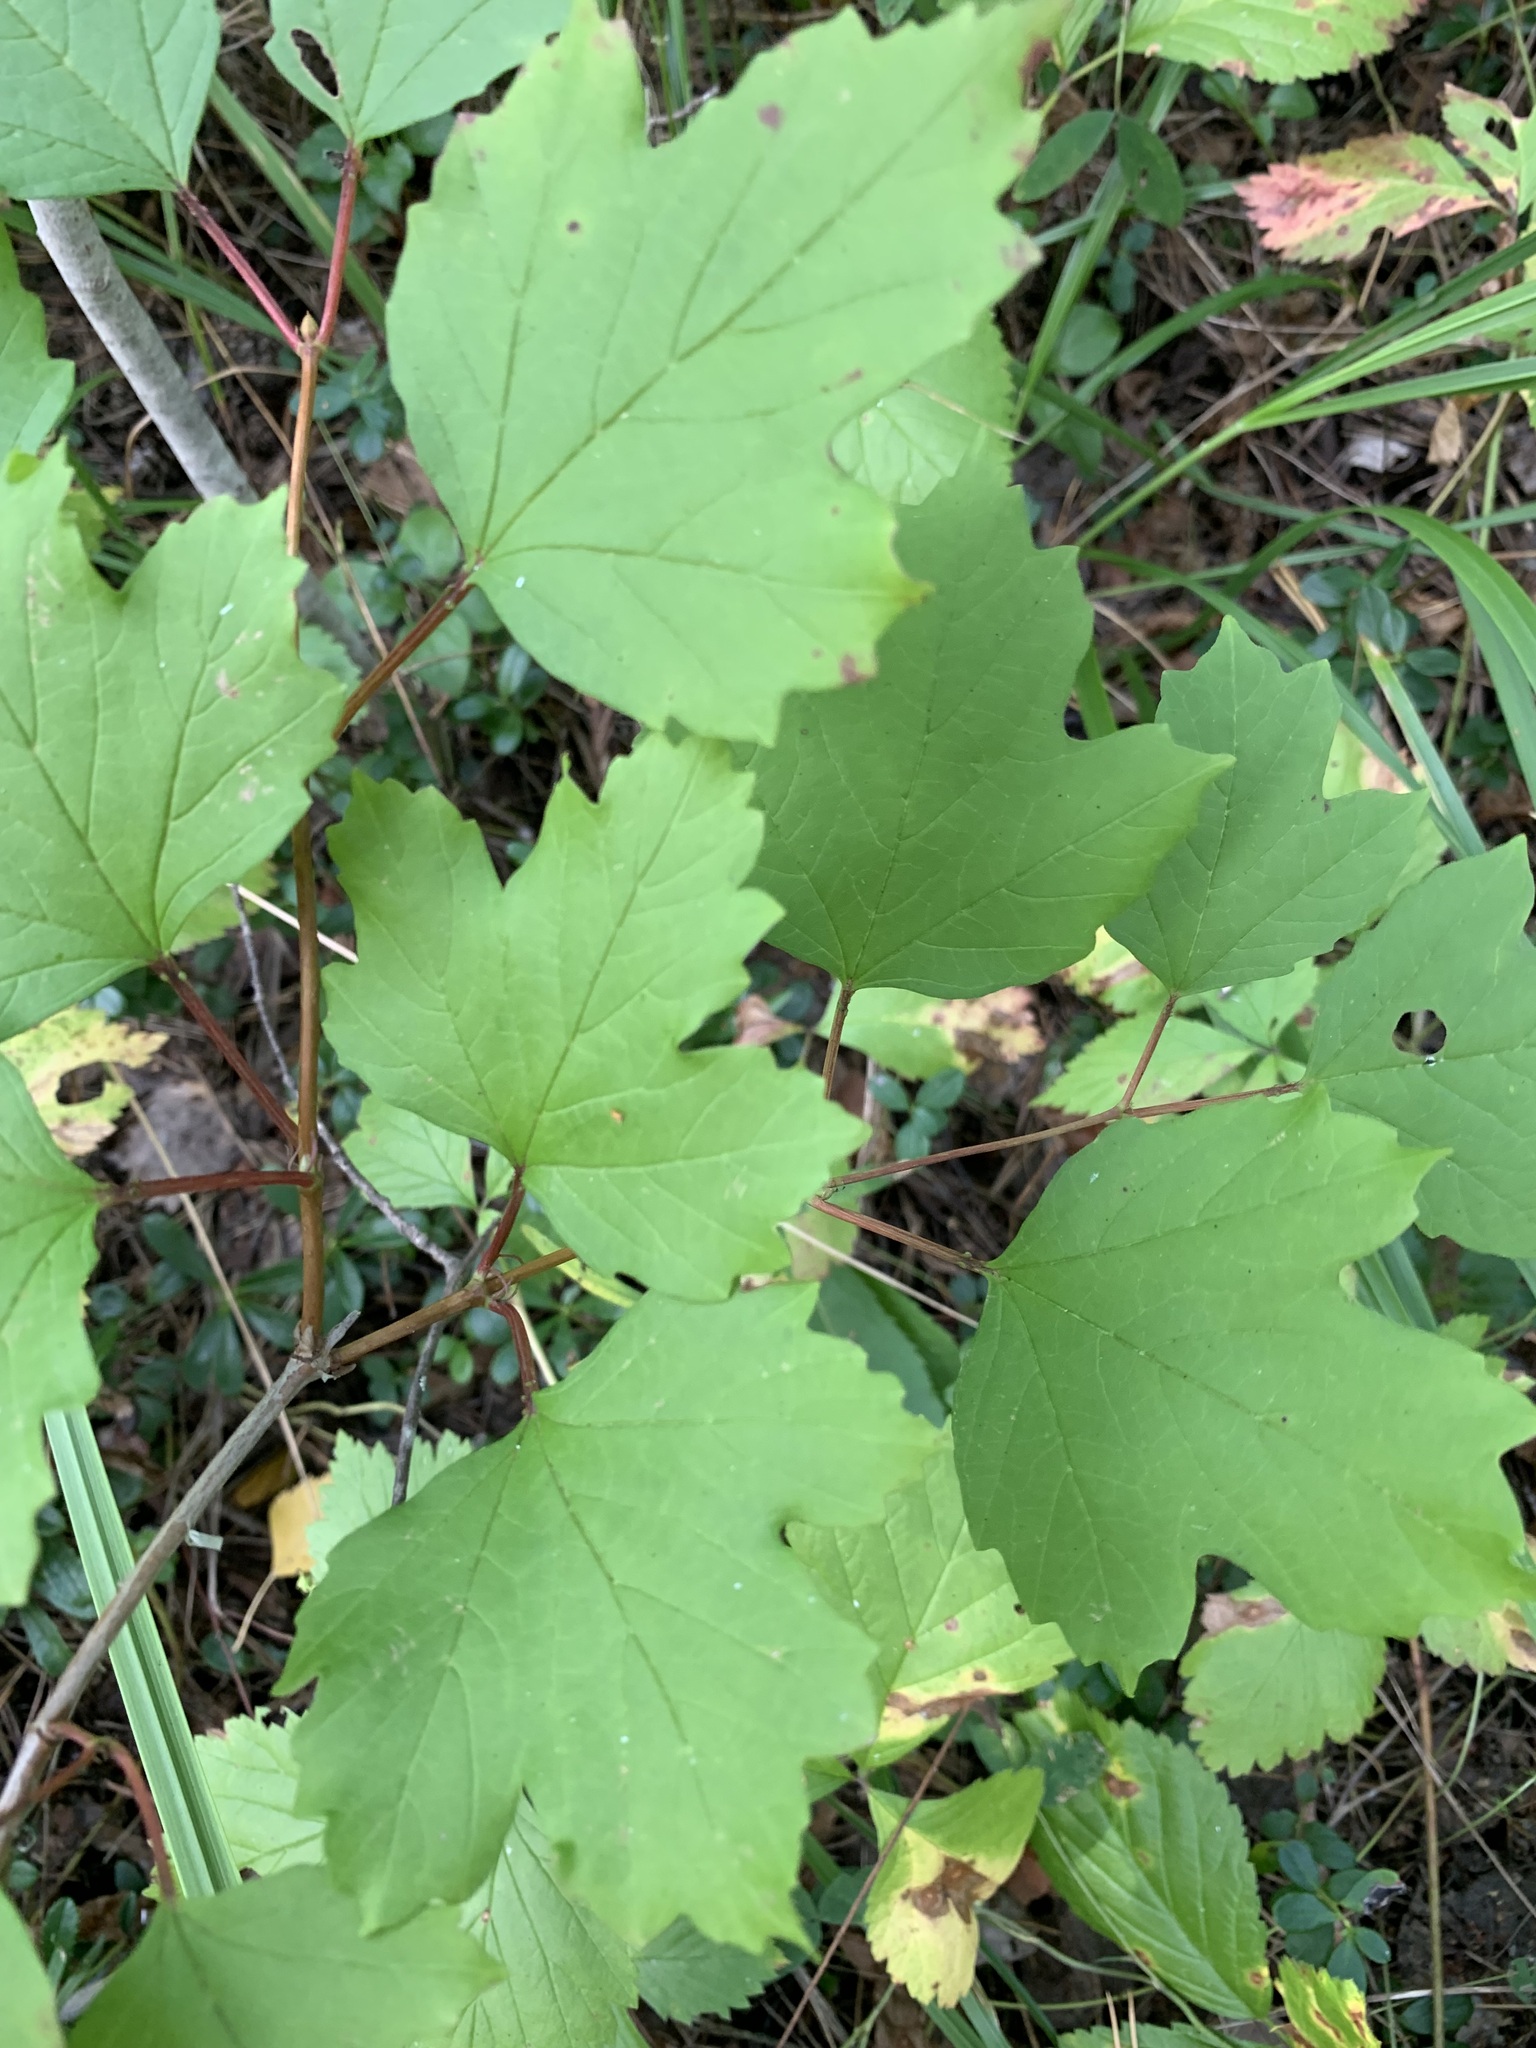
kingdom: Plantae
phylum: Tracheophyta
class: Magnoliopsida
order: Dipsacales
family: Viburnaceae
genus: Viburnum
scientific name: Viburnum opulus
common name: Guelder-rose
